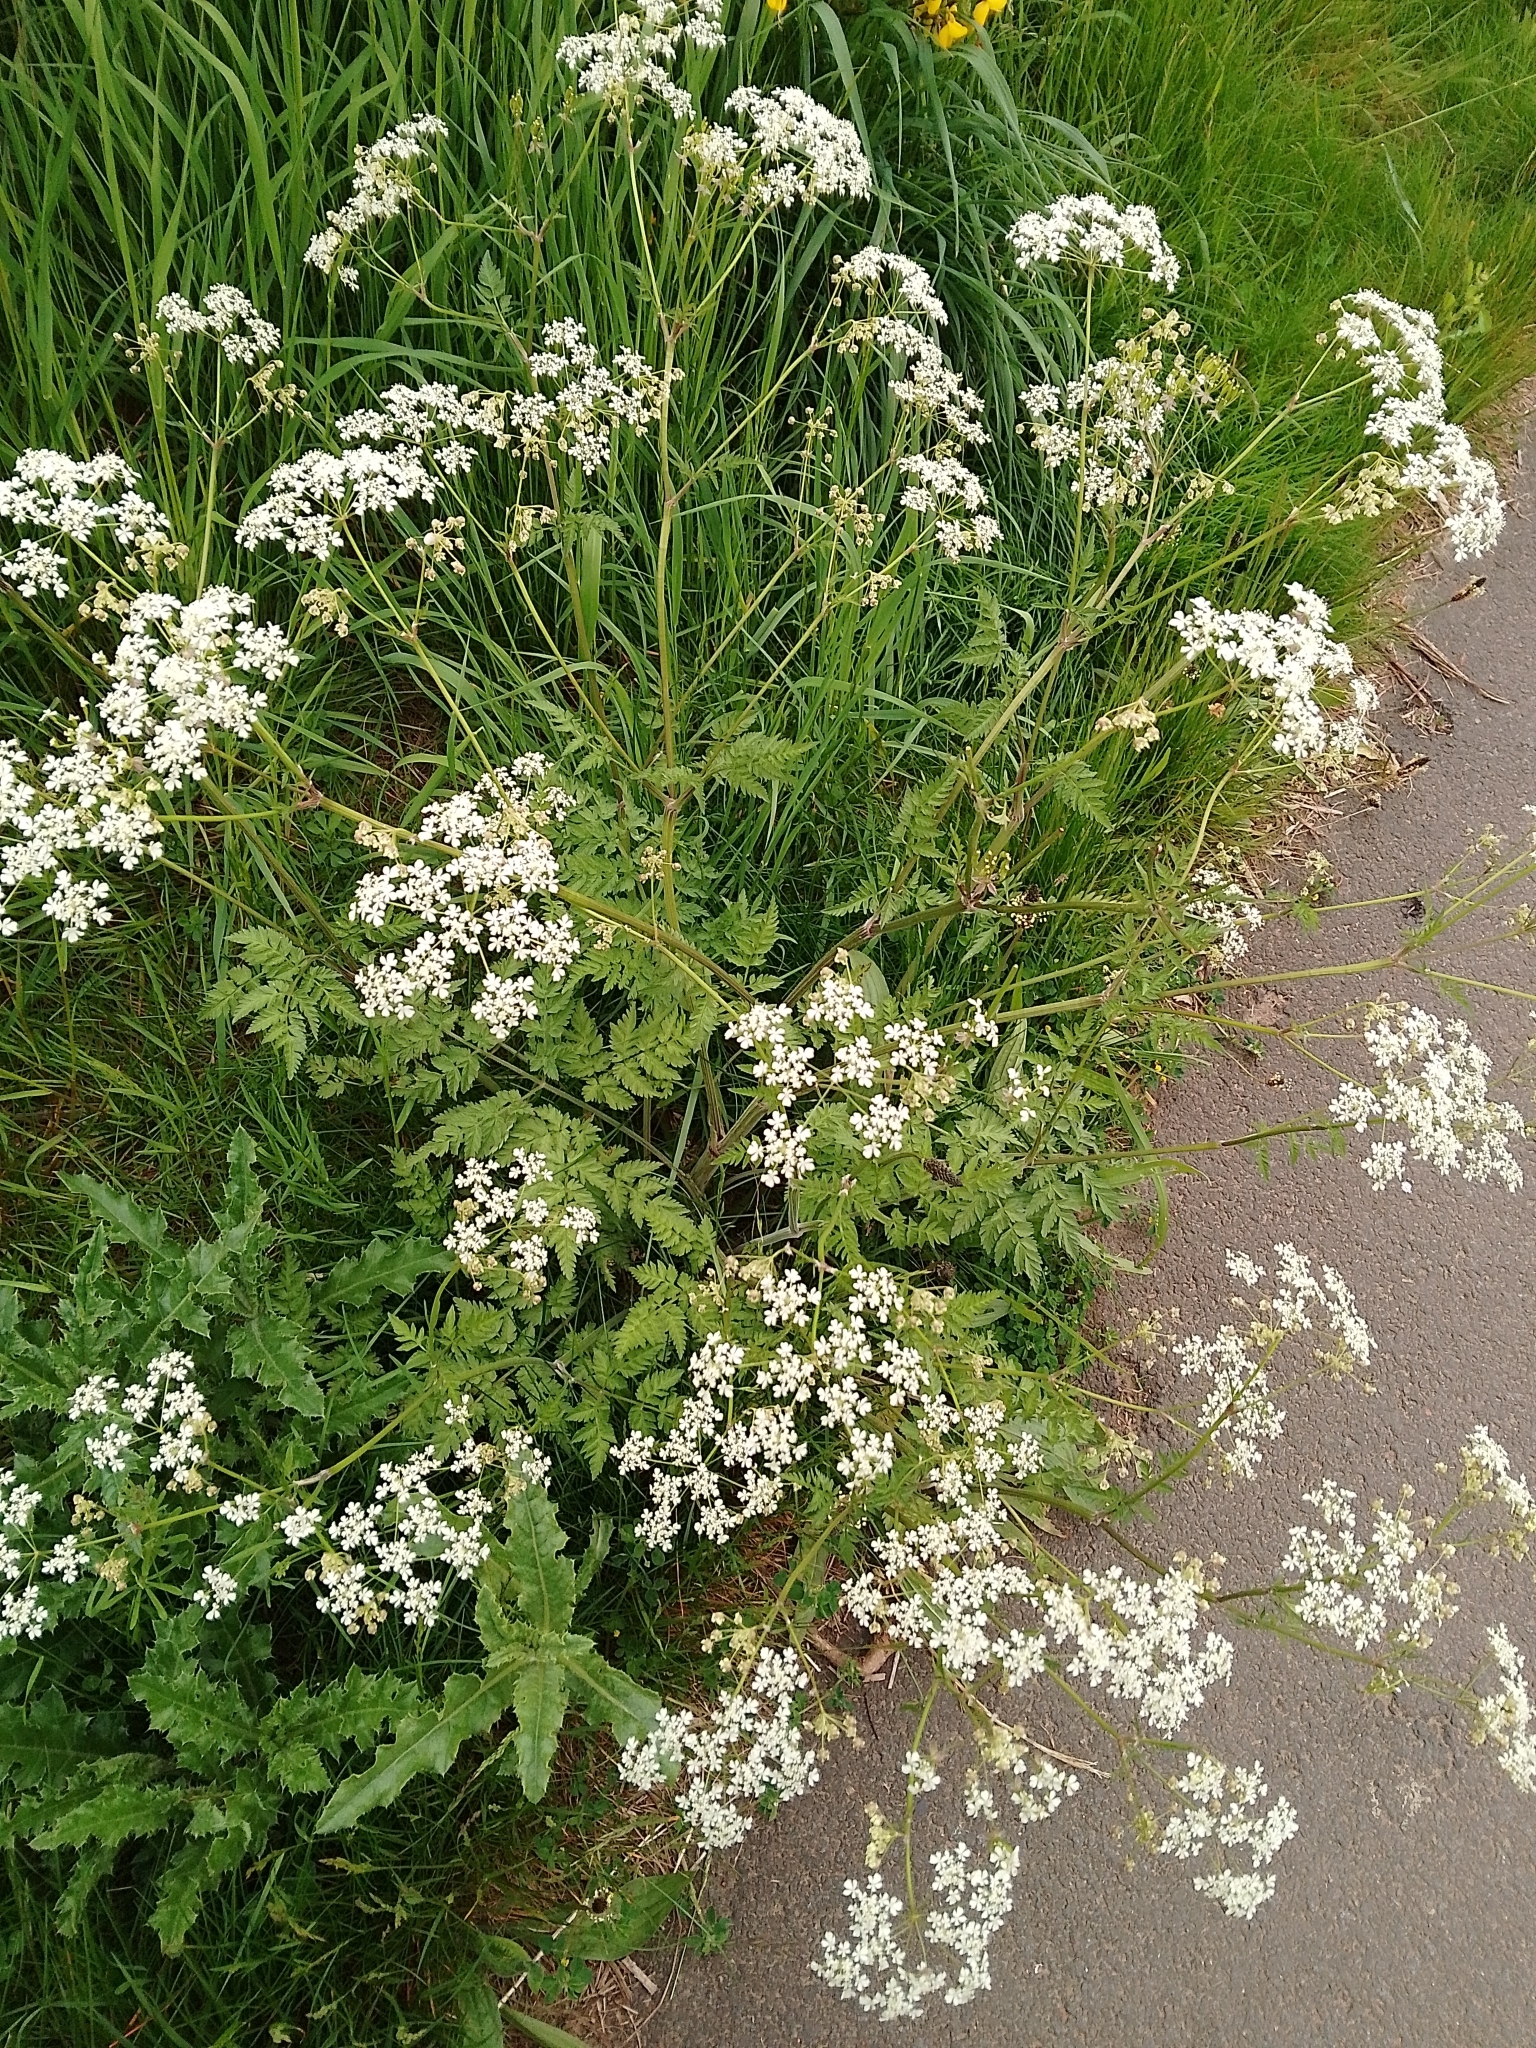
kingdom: Plantae
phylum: Tracheophyta
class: Magnoliopsida
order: Apiales
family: Apiaceae
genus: Anthriscus
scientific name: Anthriscus sylvestris
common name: Cow parsley
